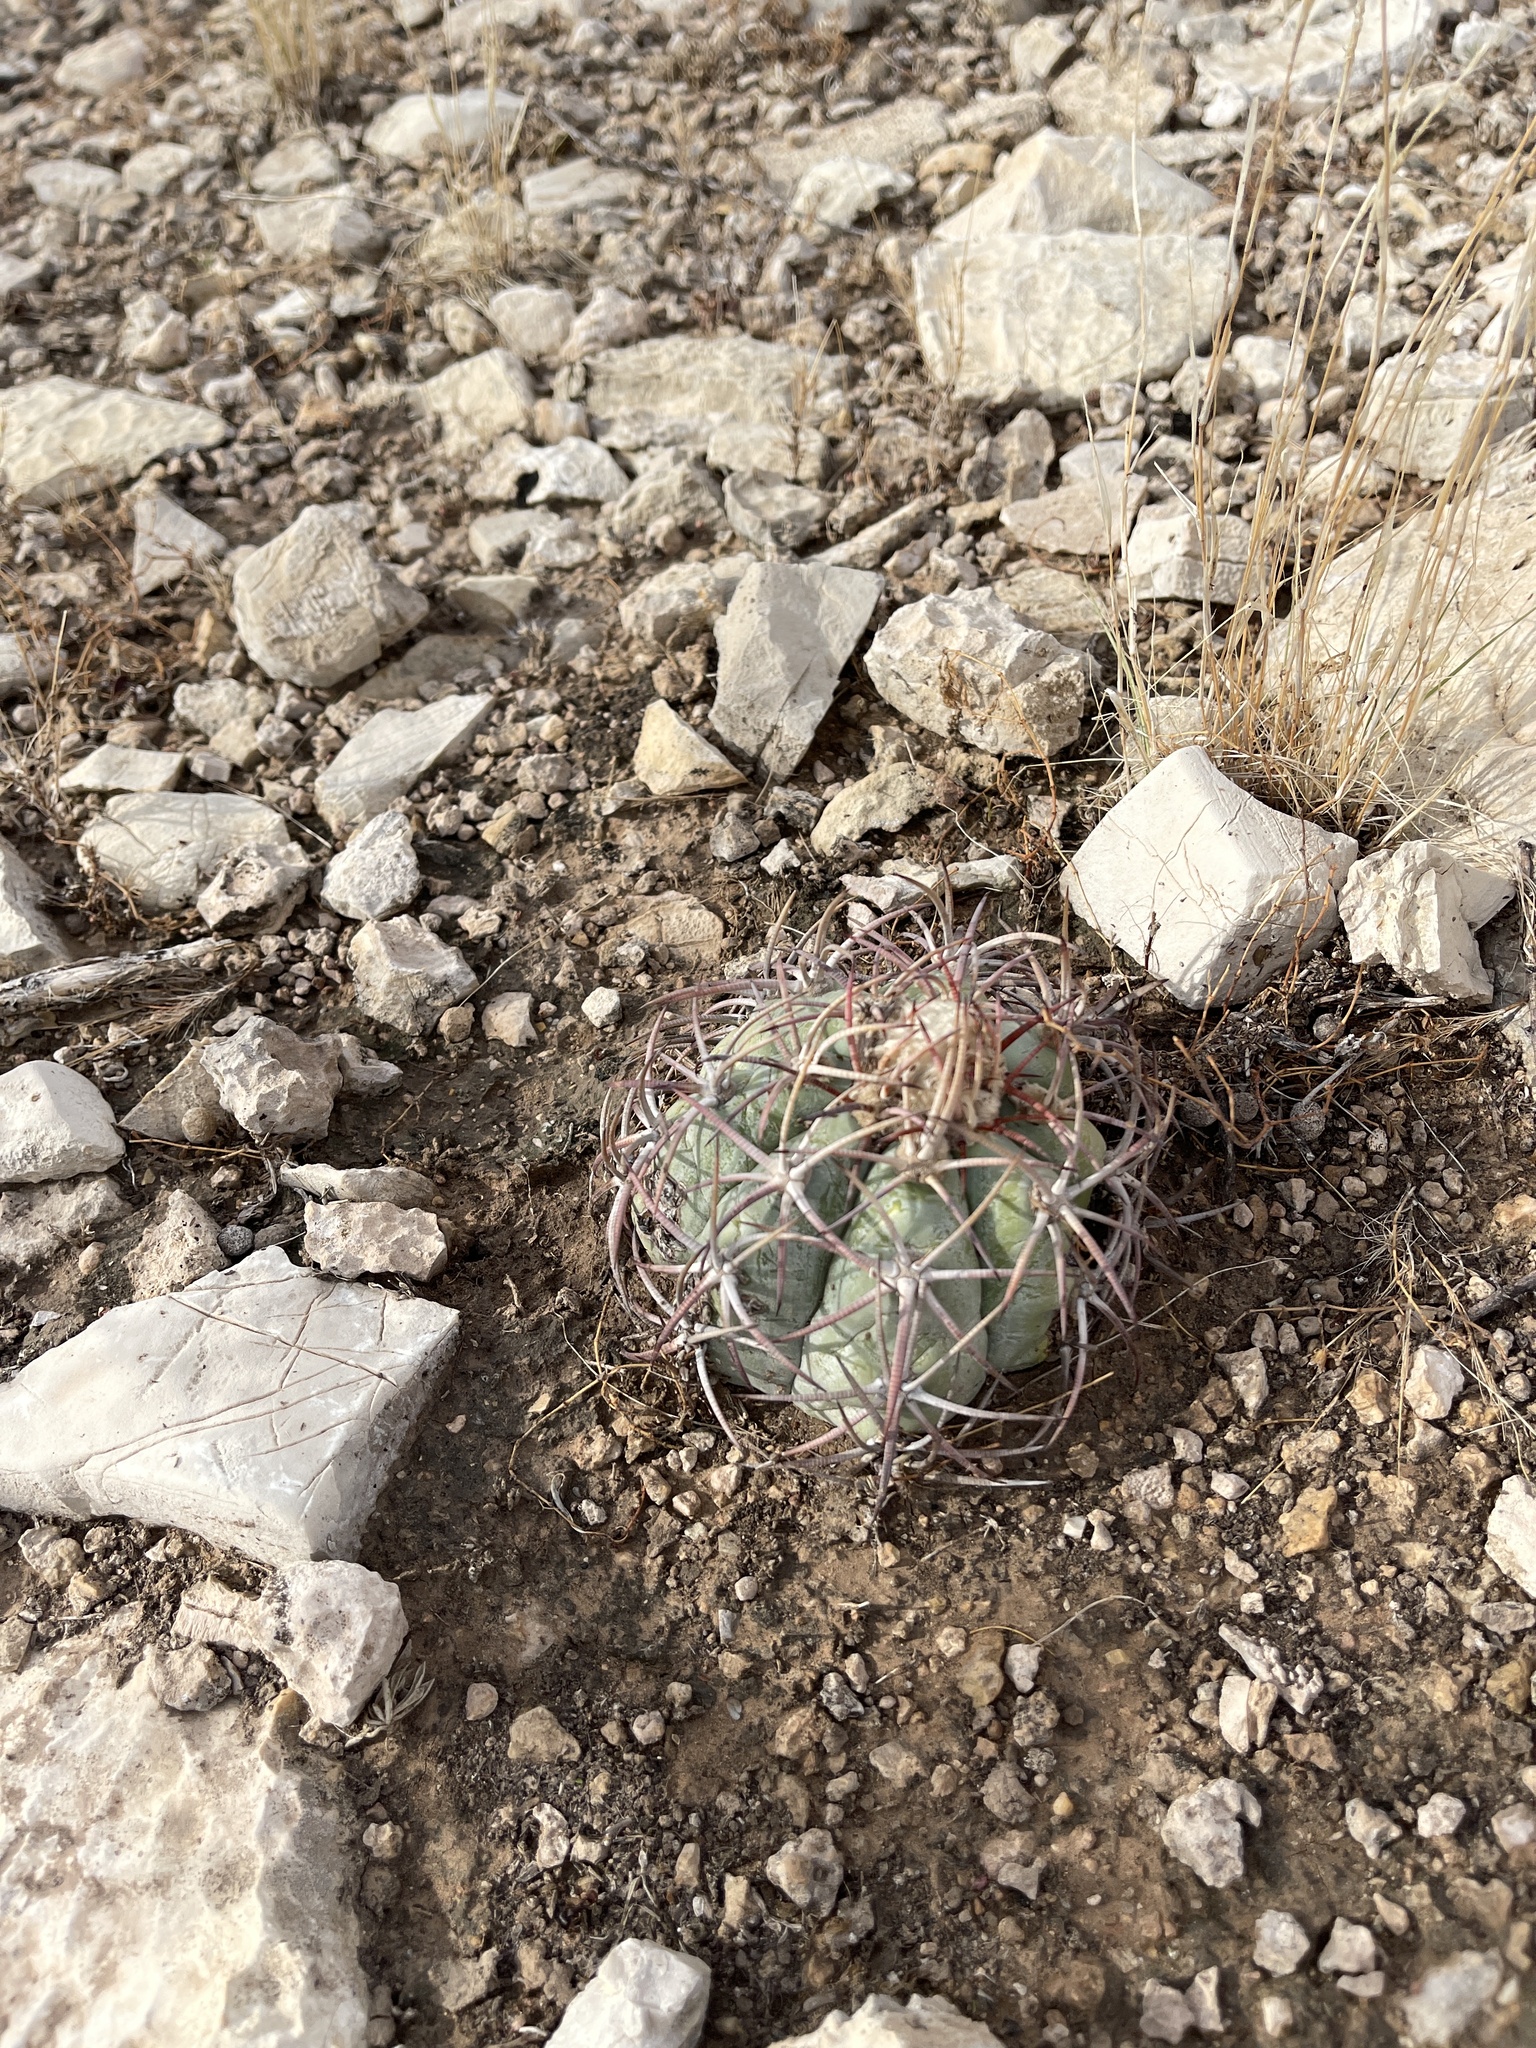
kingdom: Plantae
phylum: Tracheophyta
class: Magnoliopsida
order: Caryophyllales
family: Cactaceae
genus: Echinocactus
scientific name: Echinocactus horizonthalonius
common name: Devilshead
